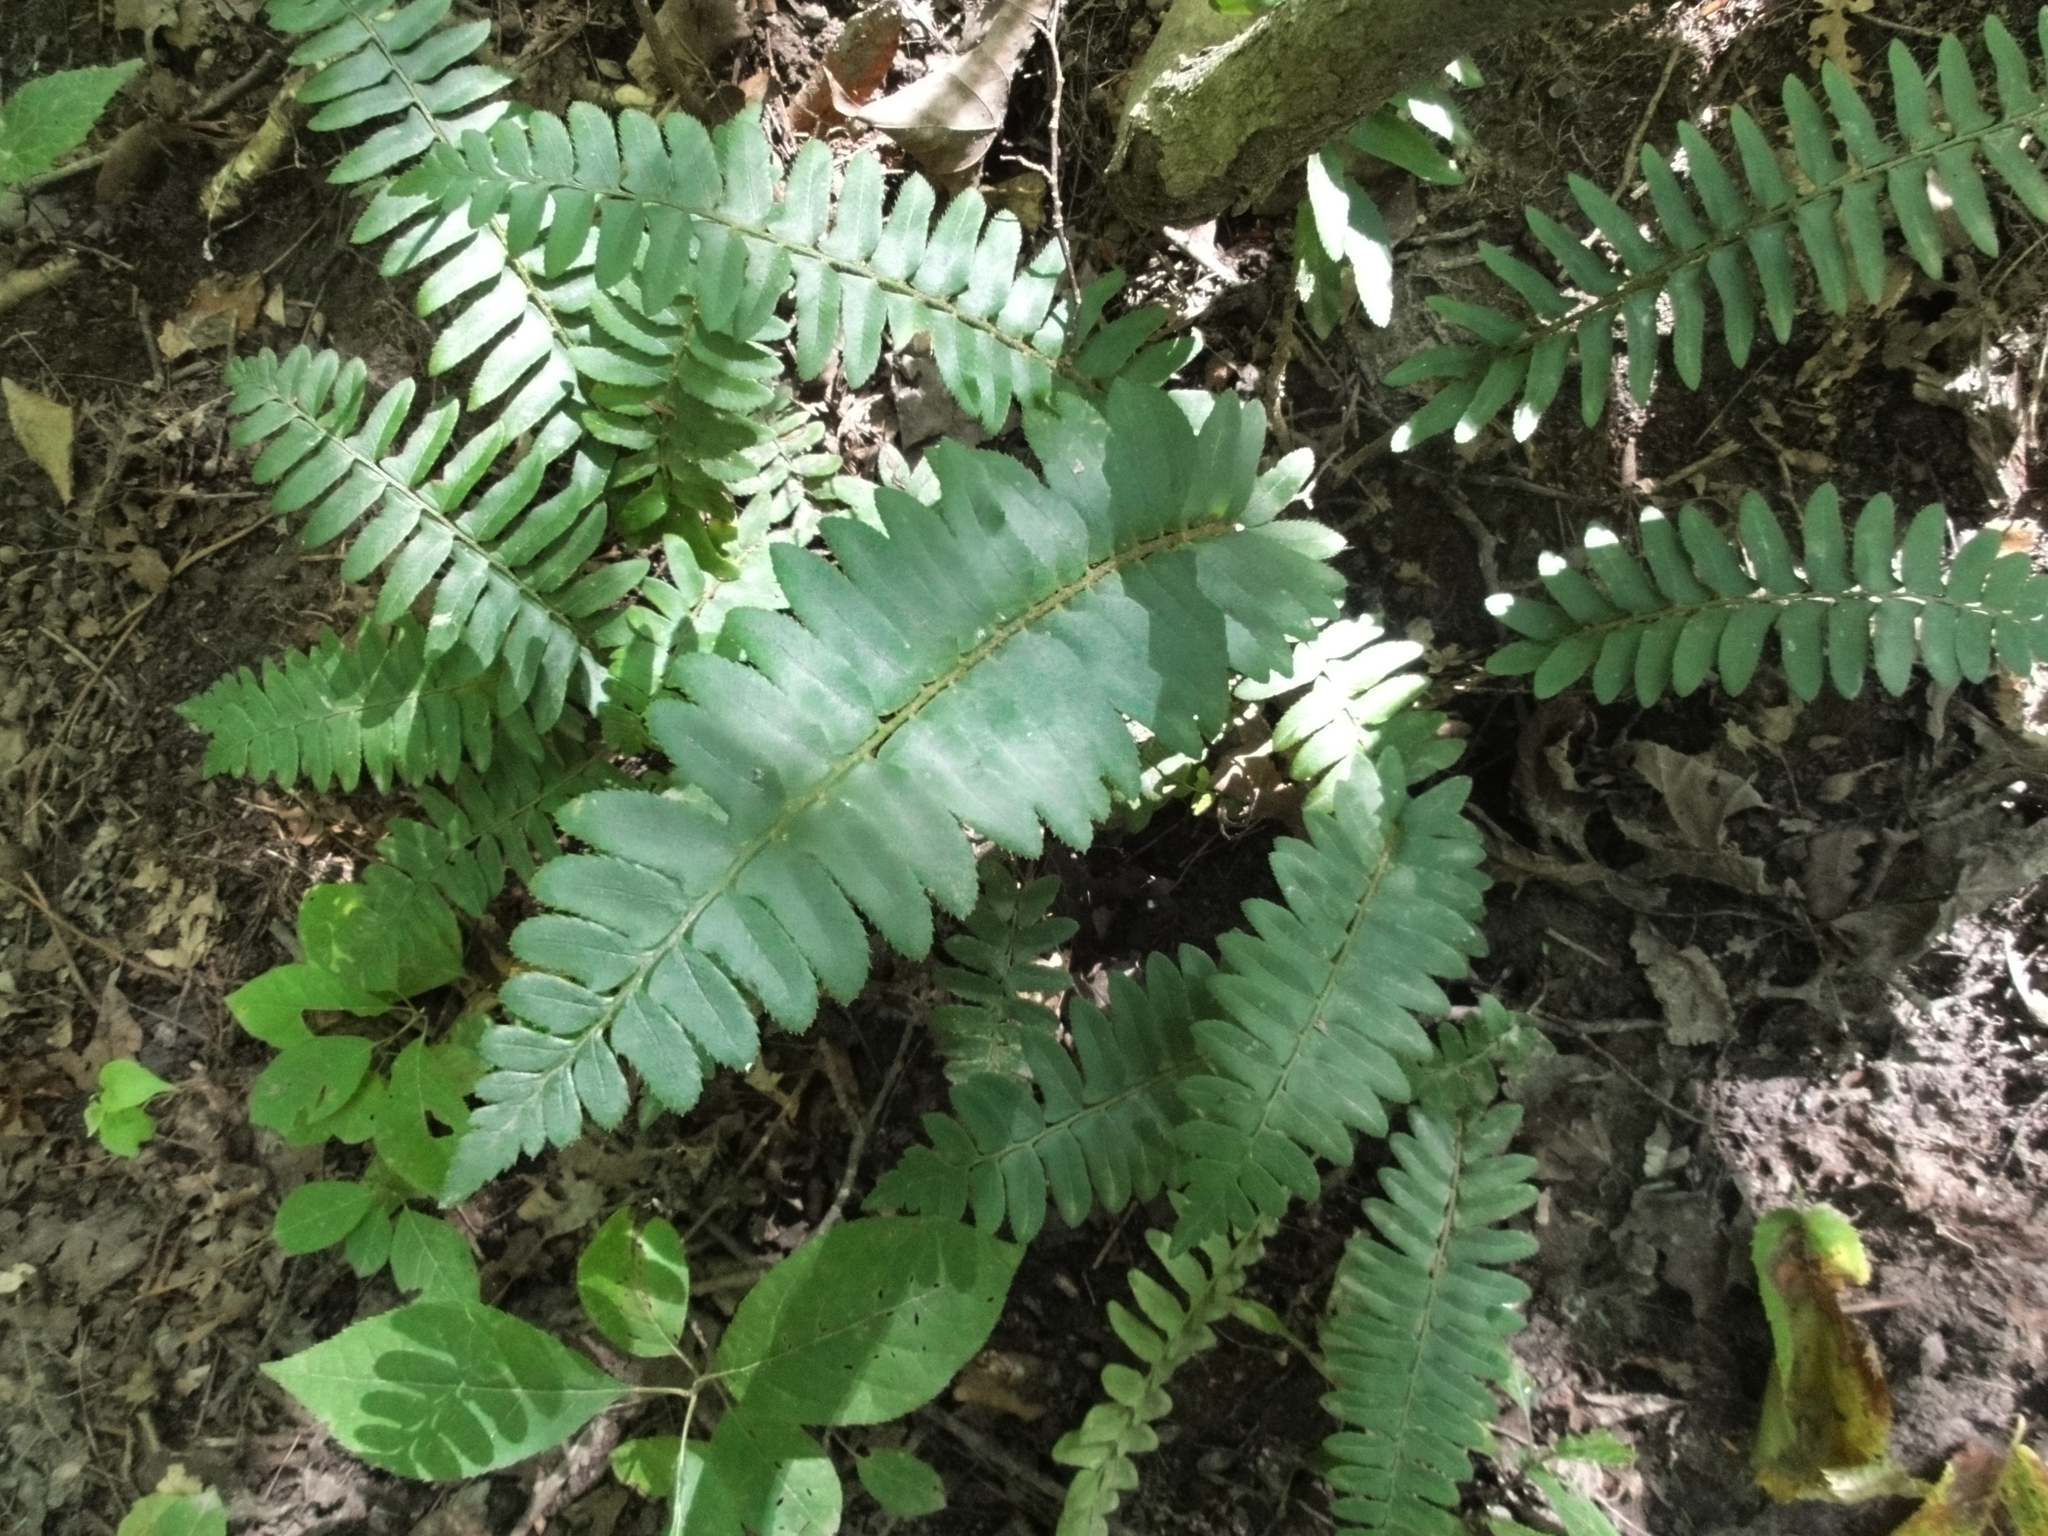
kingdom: Plantae
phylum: Tracheophyta
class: Polypodiopsida
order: Polypodiales
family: Dryopteridaceae
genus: Polystichum
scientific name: Polystichum acrostichoides
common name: Christmas fern
